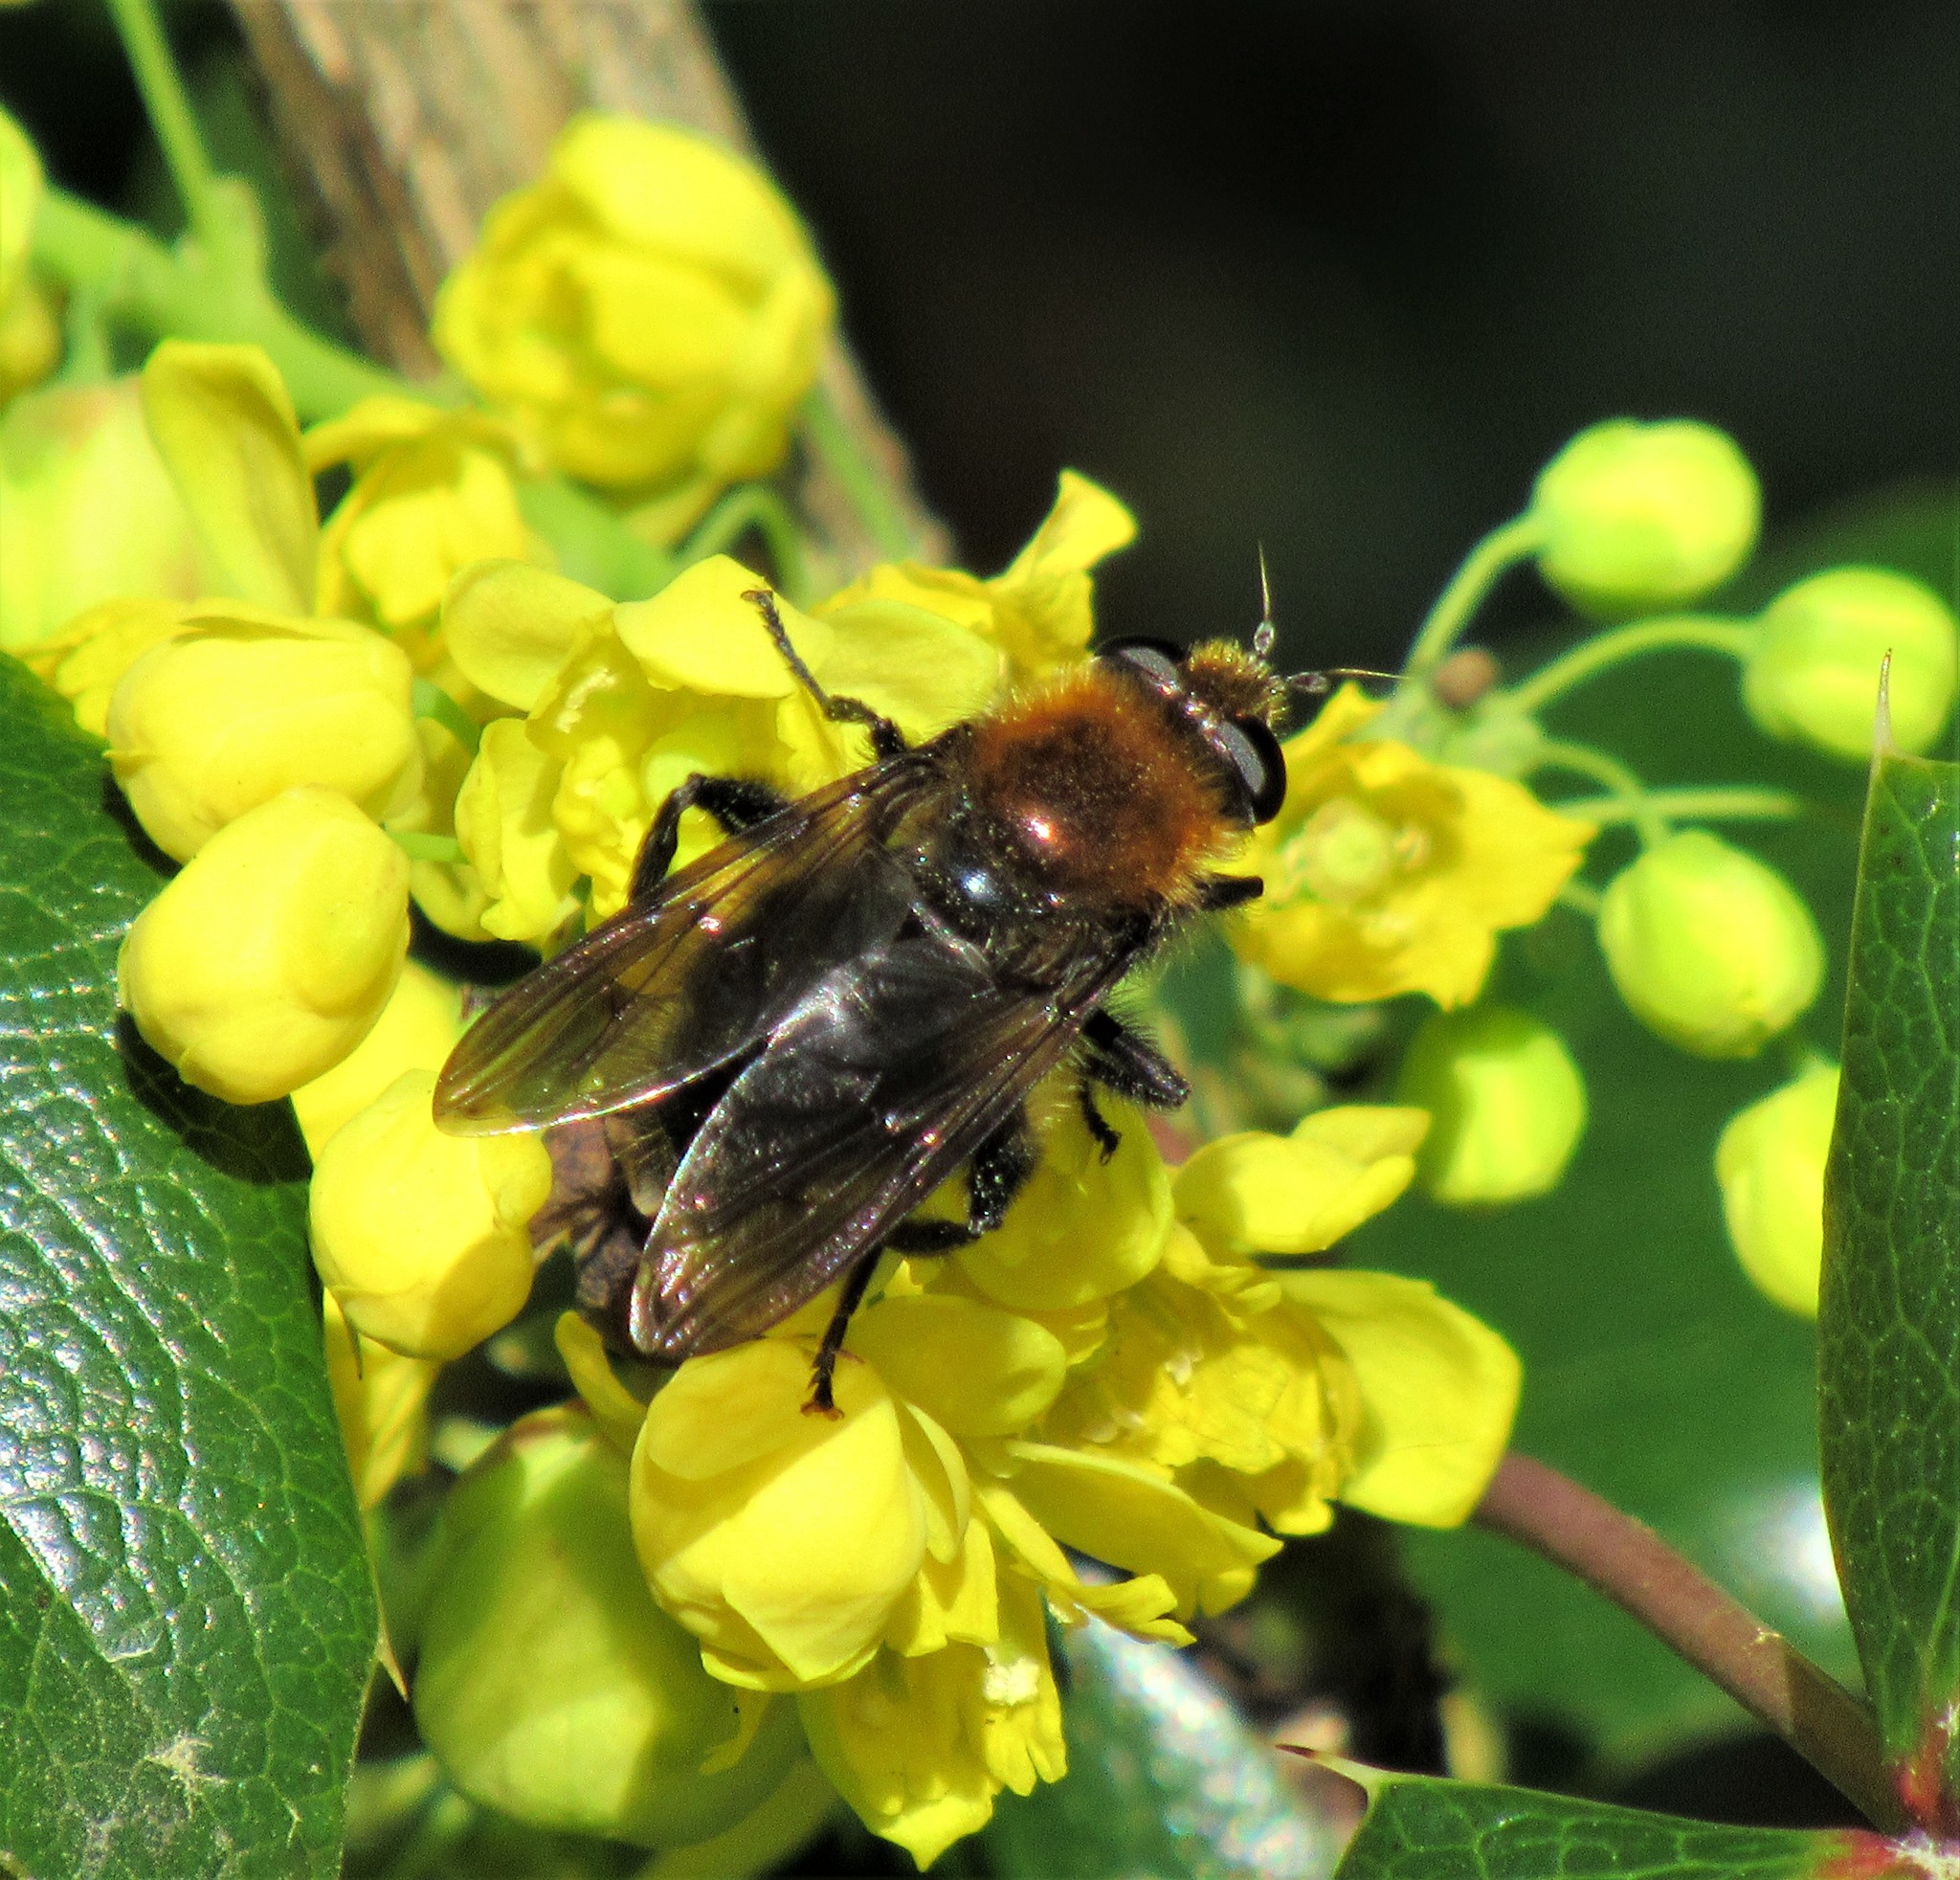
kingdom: Animalia
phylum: Arthropoda
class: Insecta
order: Diptera
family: Syrphidae
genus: Brachypalpus
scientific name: Brachypalpus alopex
